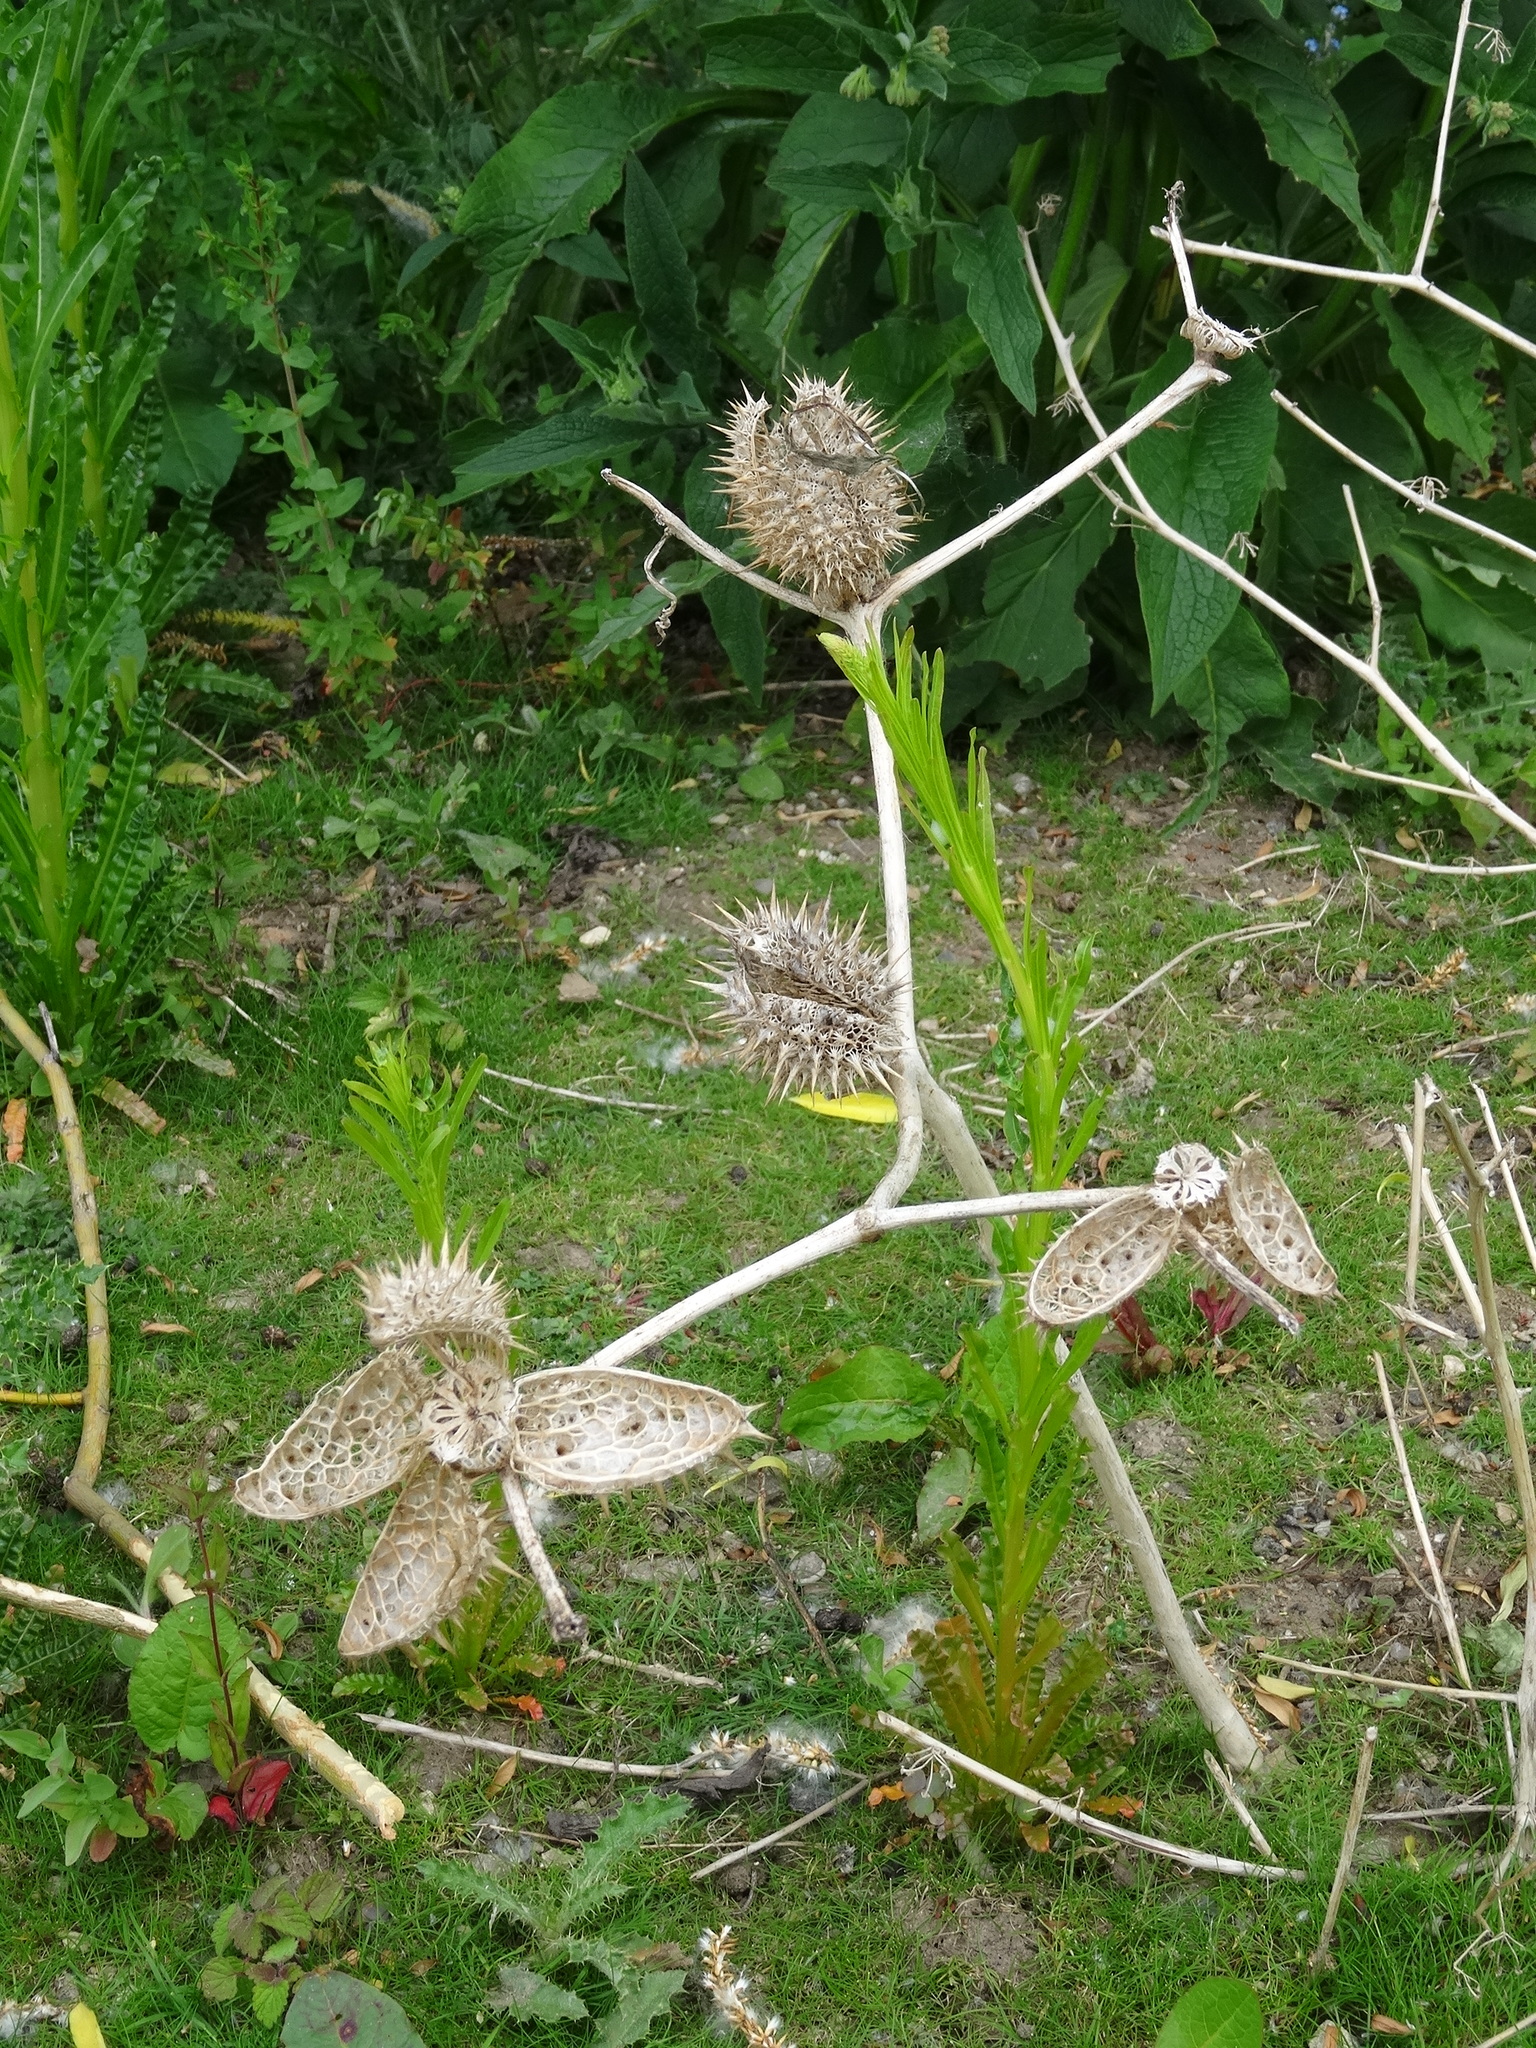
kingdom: Plantae
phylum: Tracheophyta
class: Magnoliopsida
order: Solanales
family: Solanaceae
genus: Datura
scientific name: Datura stramonium
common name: Thorn-apple
